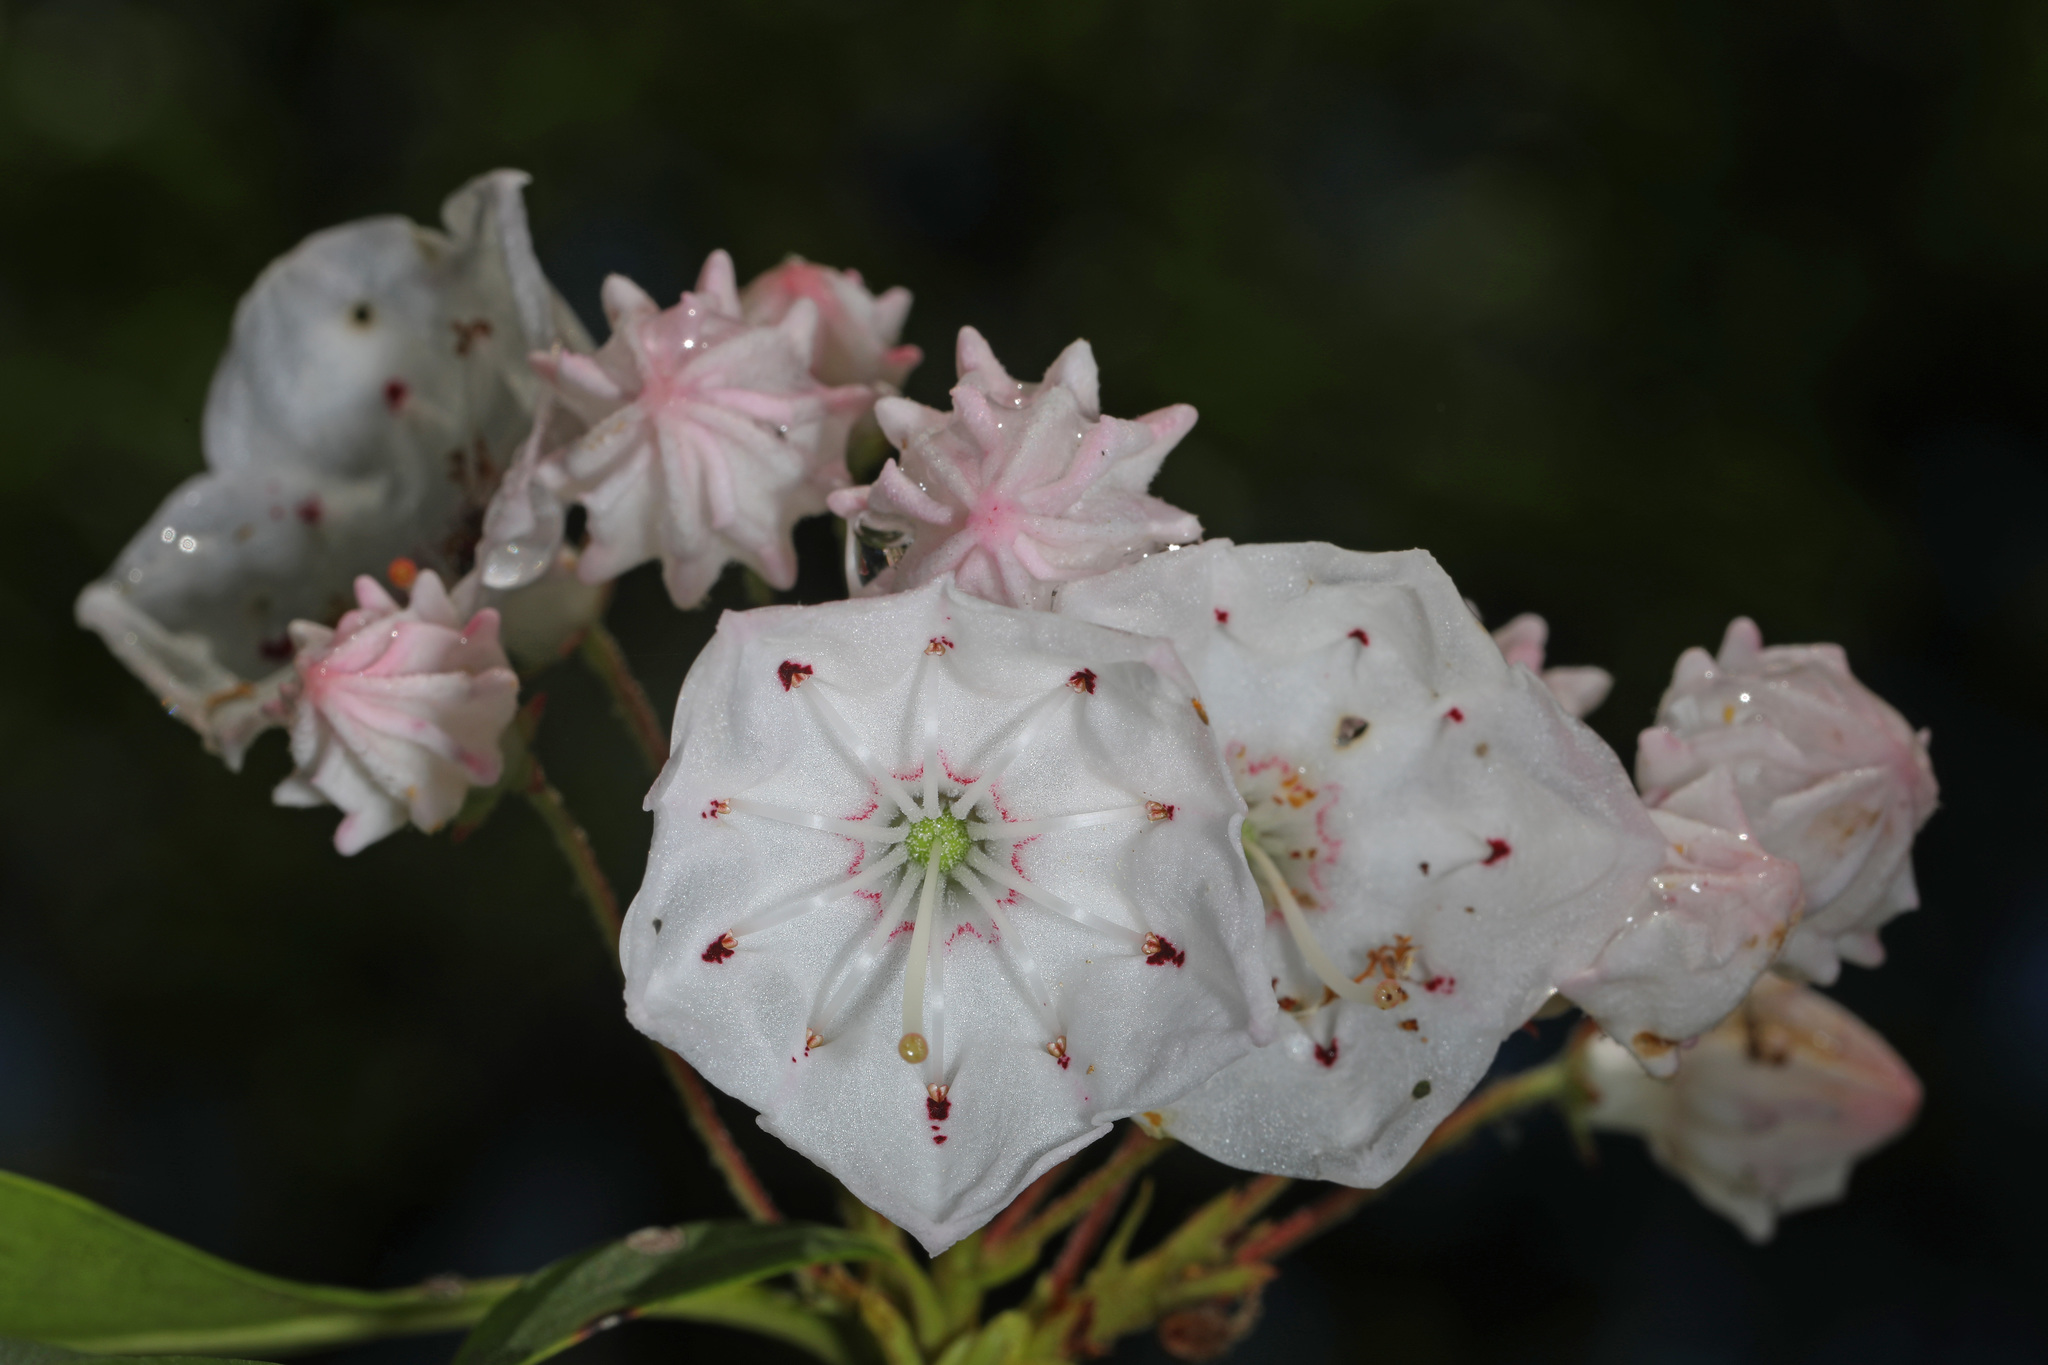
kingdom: Plantae
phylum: Tracheophyta
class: Magnoliopsida
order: Ericales
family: Ericaceae
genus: Kalmia
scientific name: Kalmia latifolia
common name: Mountain-laurel
